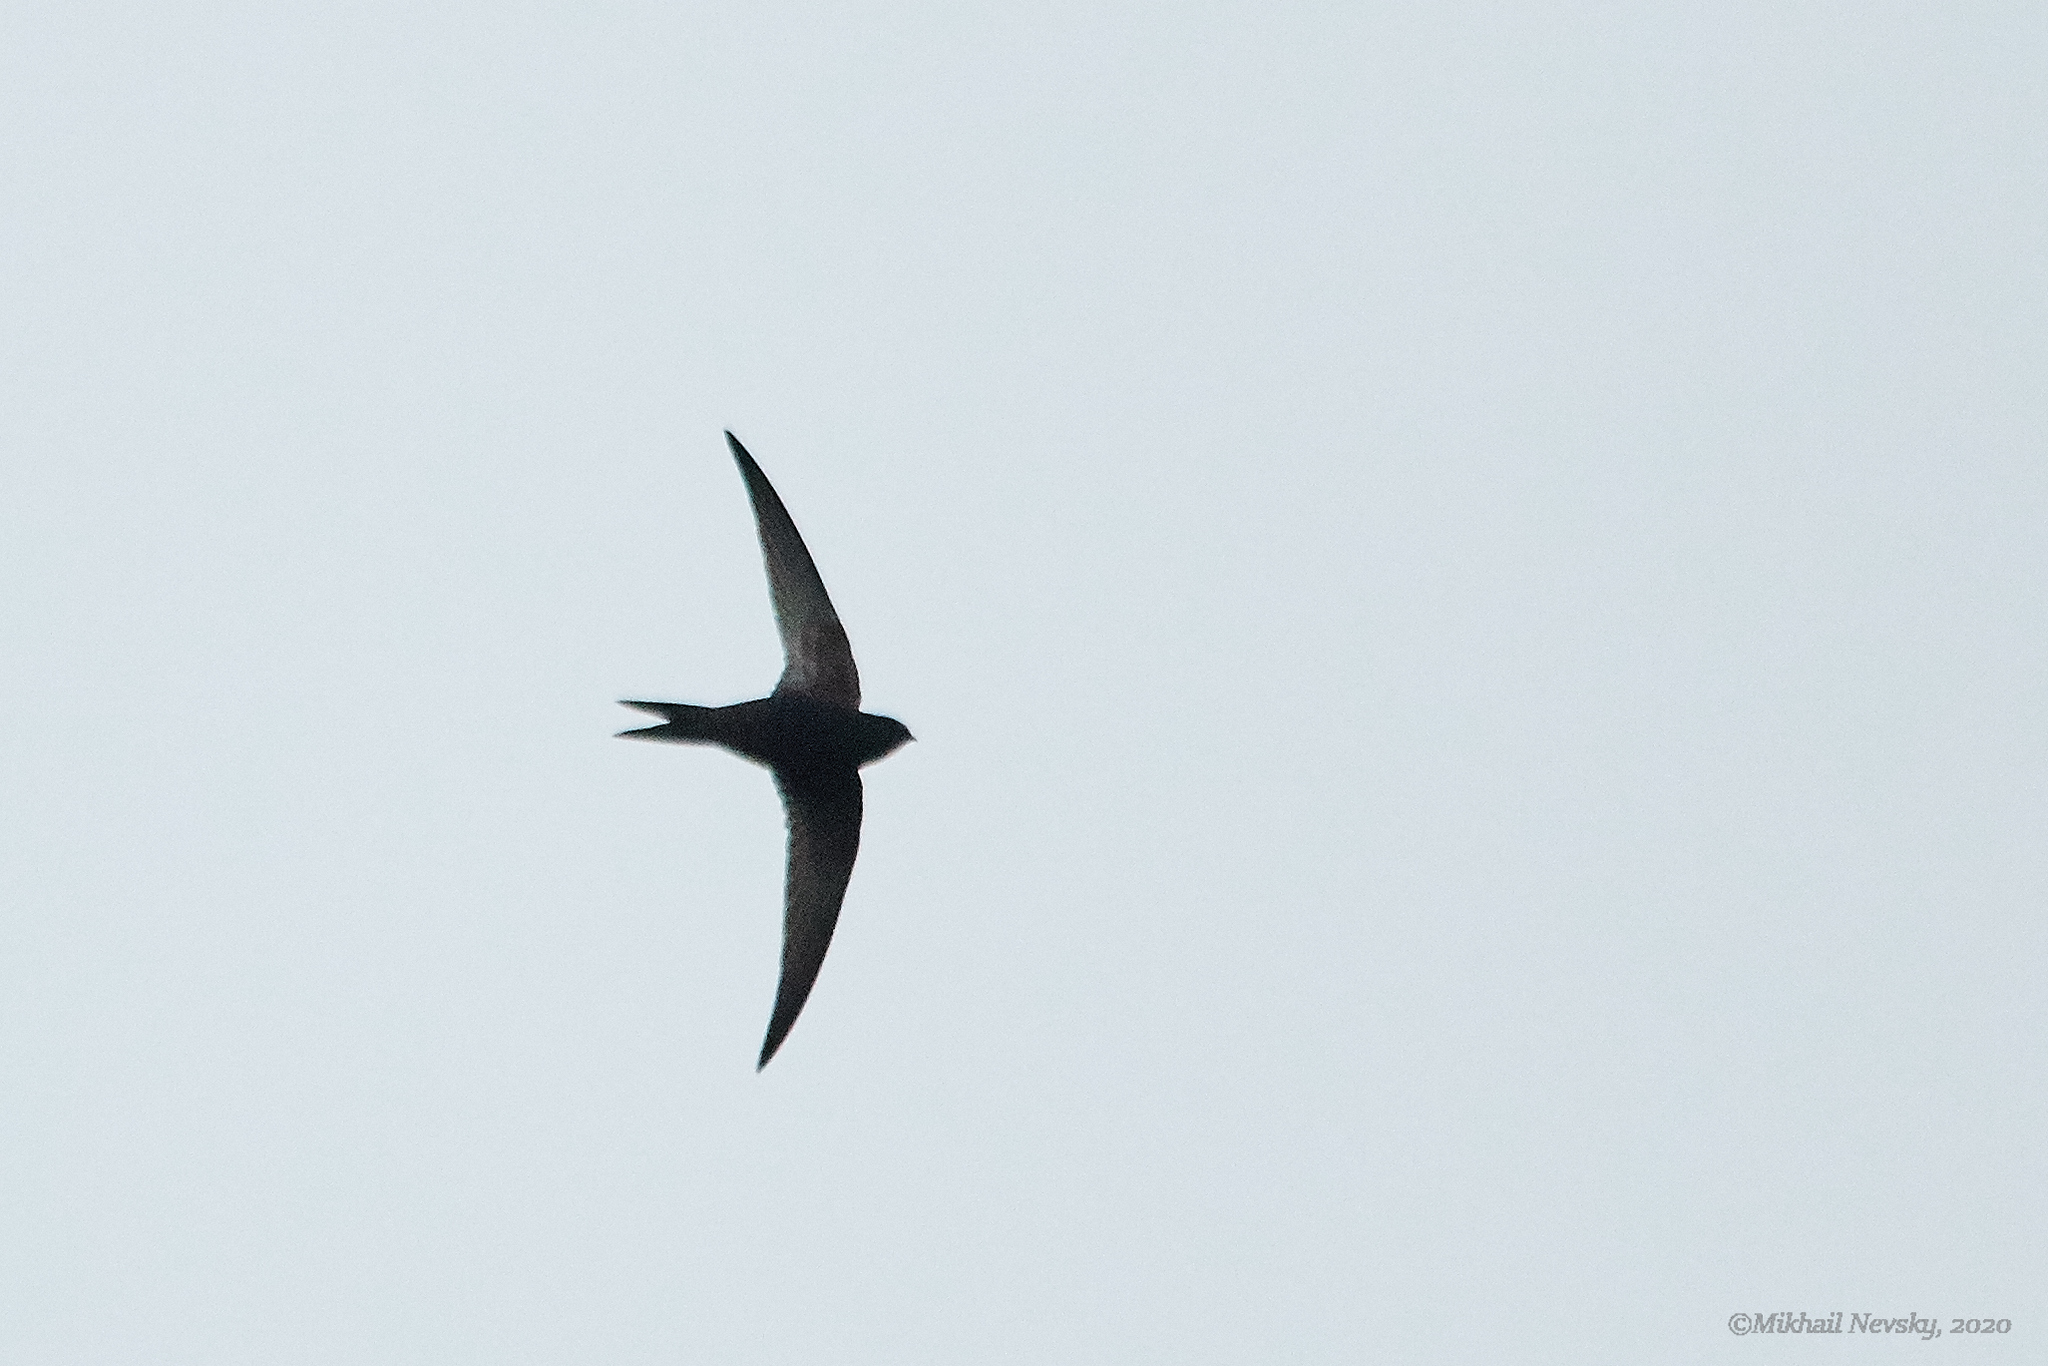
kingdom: Animalia
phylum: Chordata
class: Aves
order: Apodiformes
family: Apodidae
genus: Apus
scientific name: Apus apus
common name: Common swift
